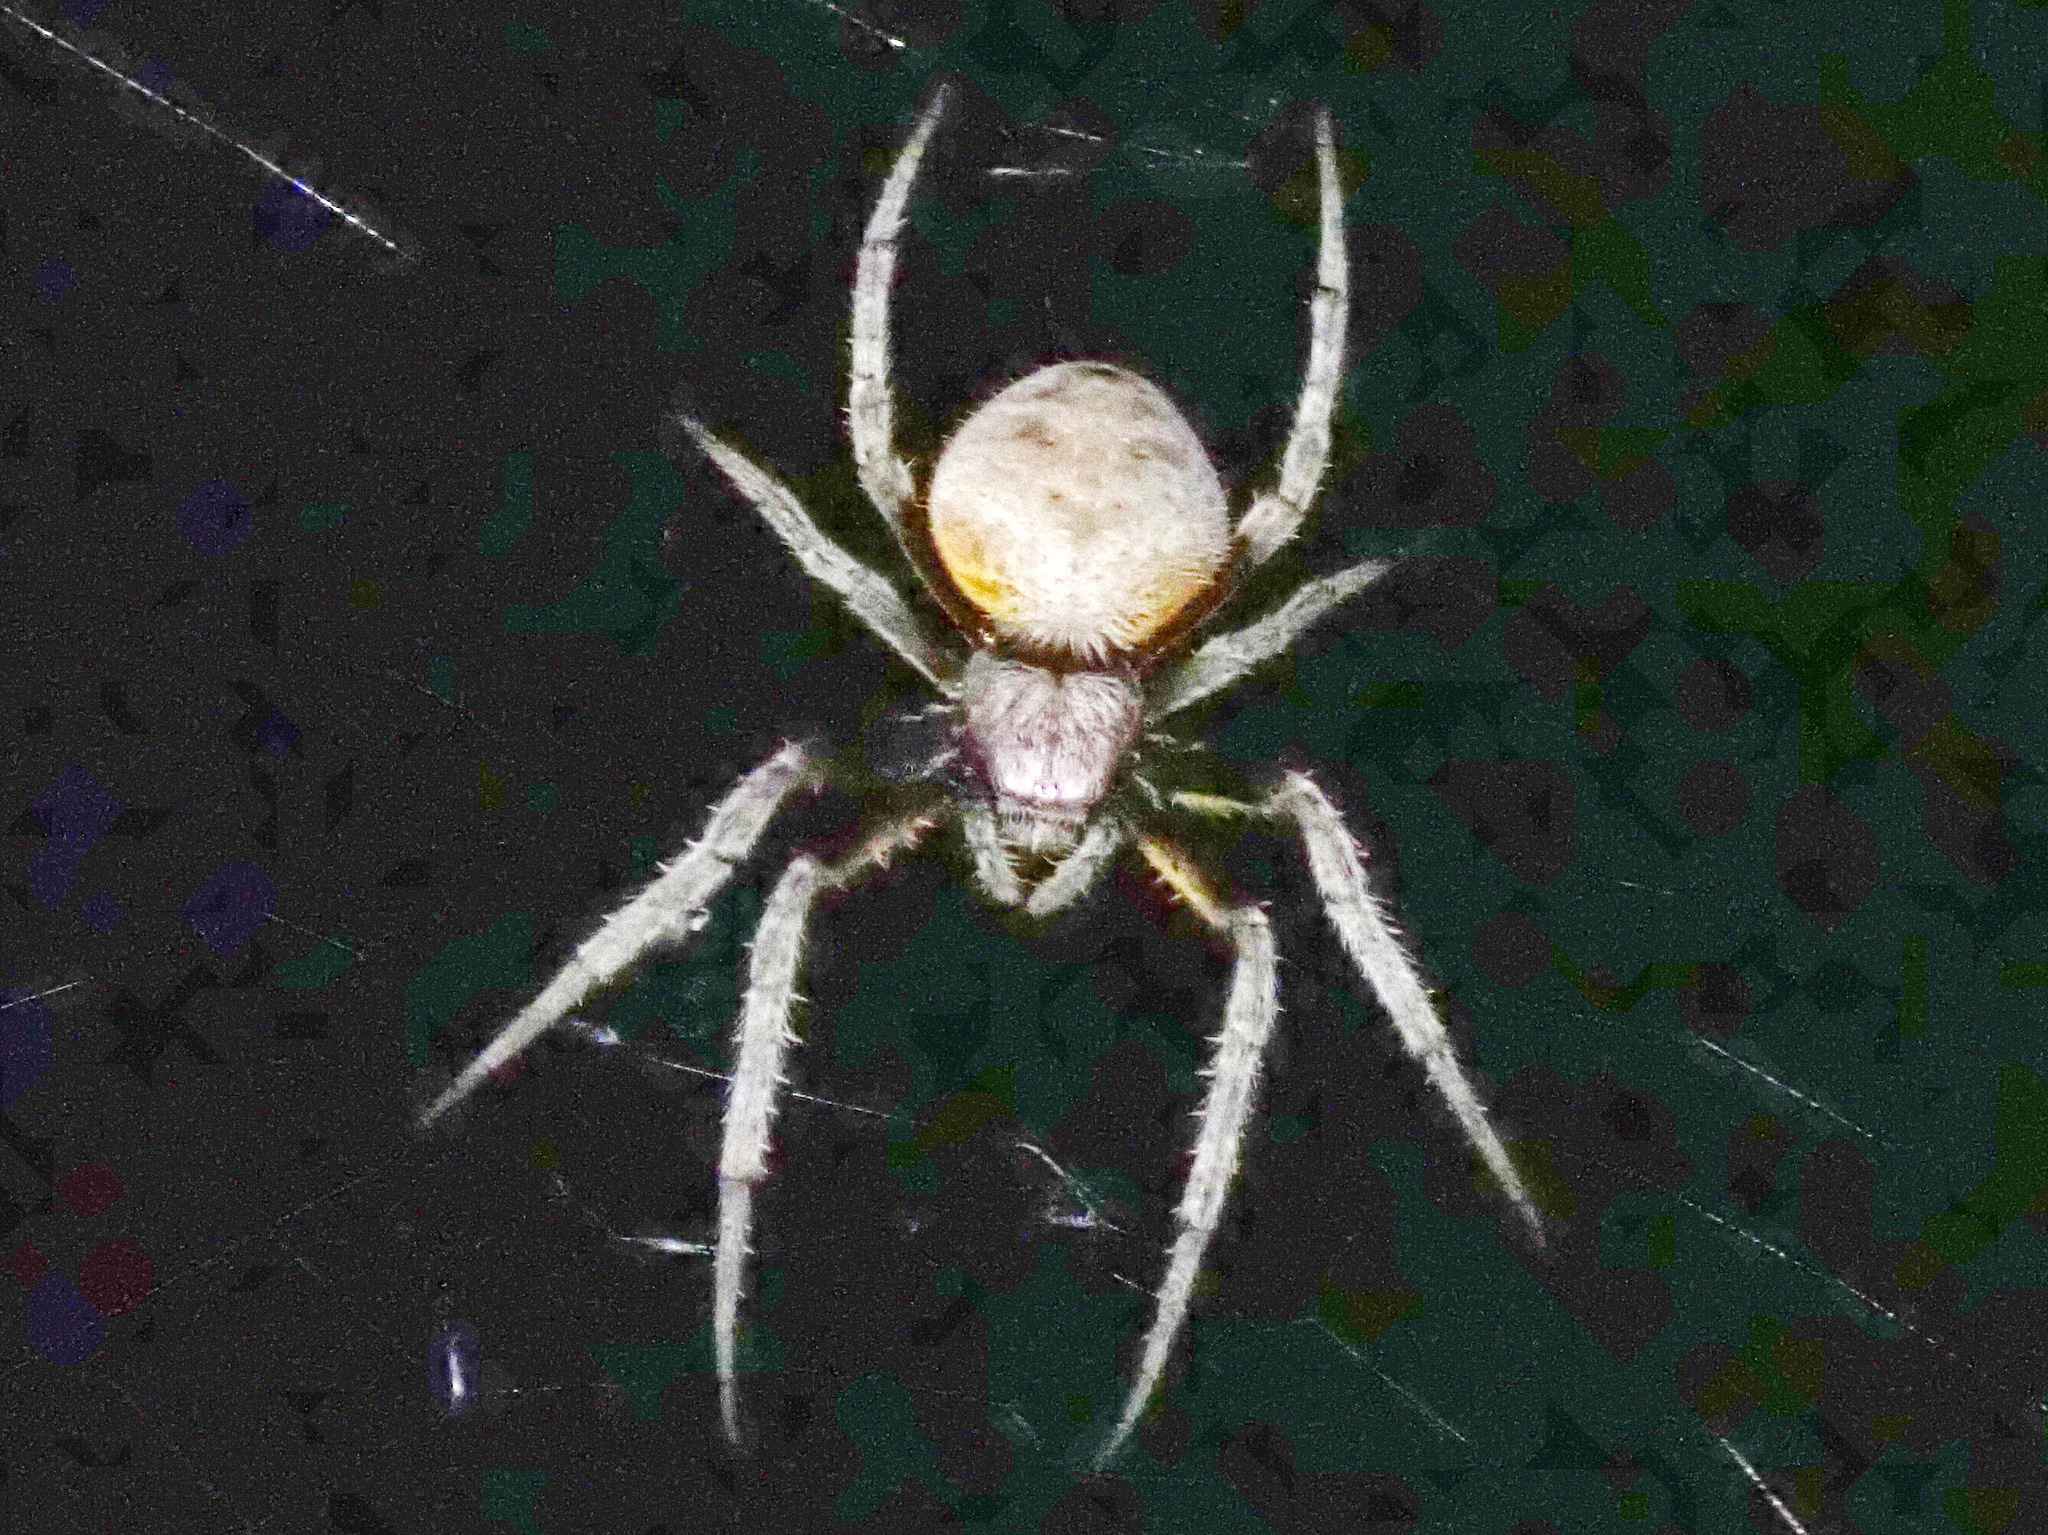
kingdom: Animalia
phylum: Arthropoda
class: Arachnida
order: Araneae
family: Araneidae
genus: Eriophora
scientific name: Eriophora ravilla
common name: Orb weavers
